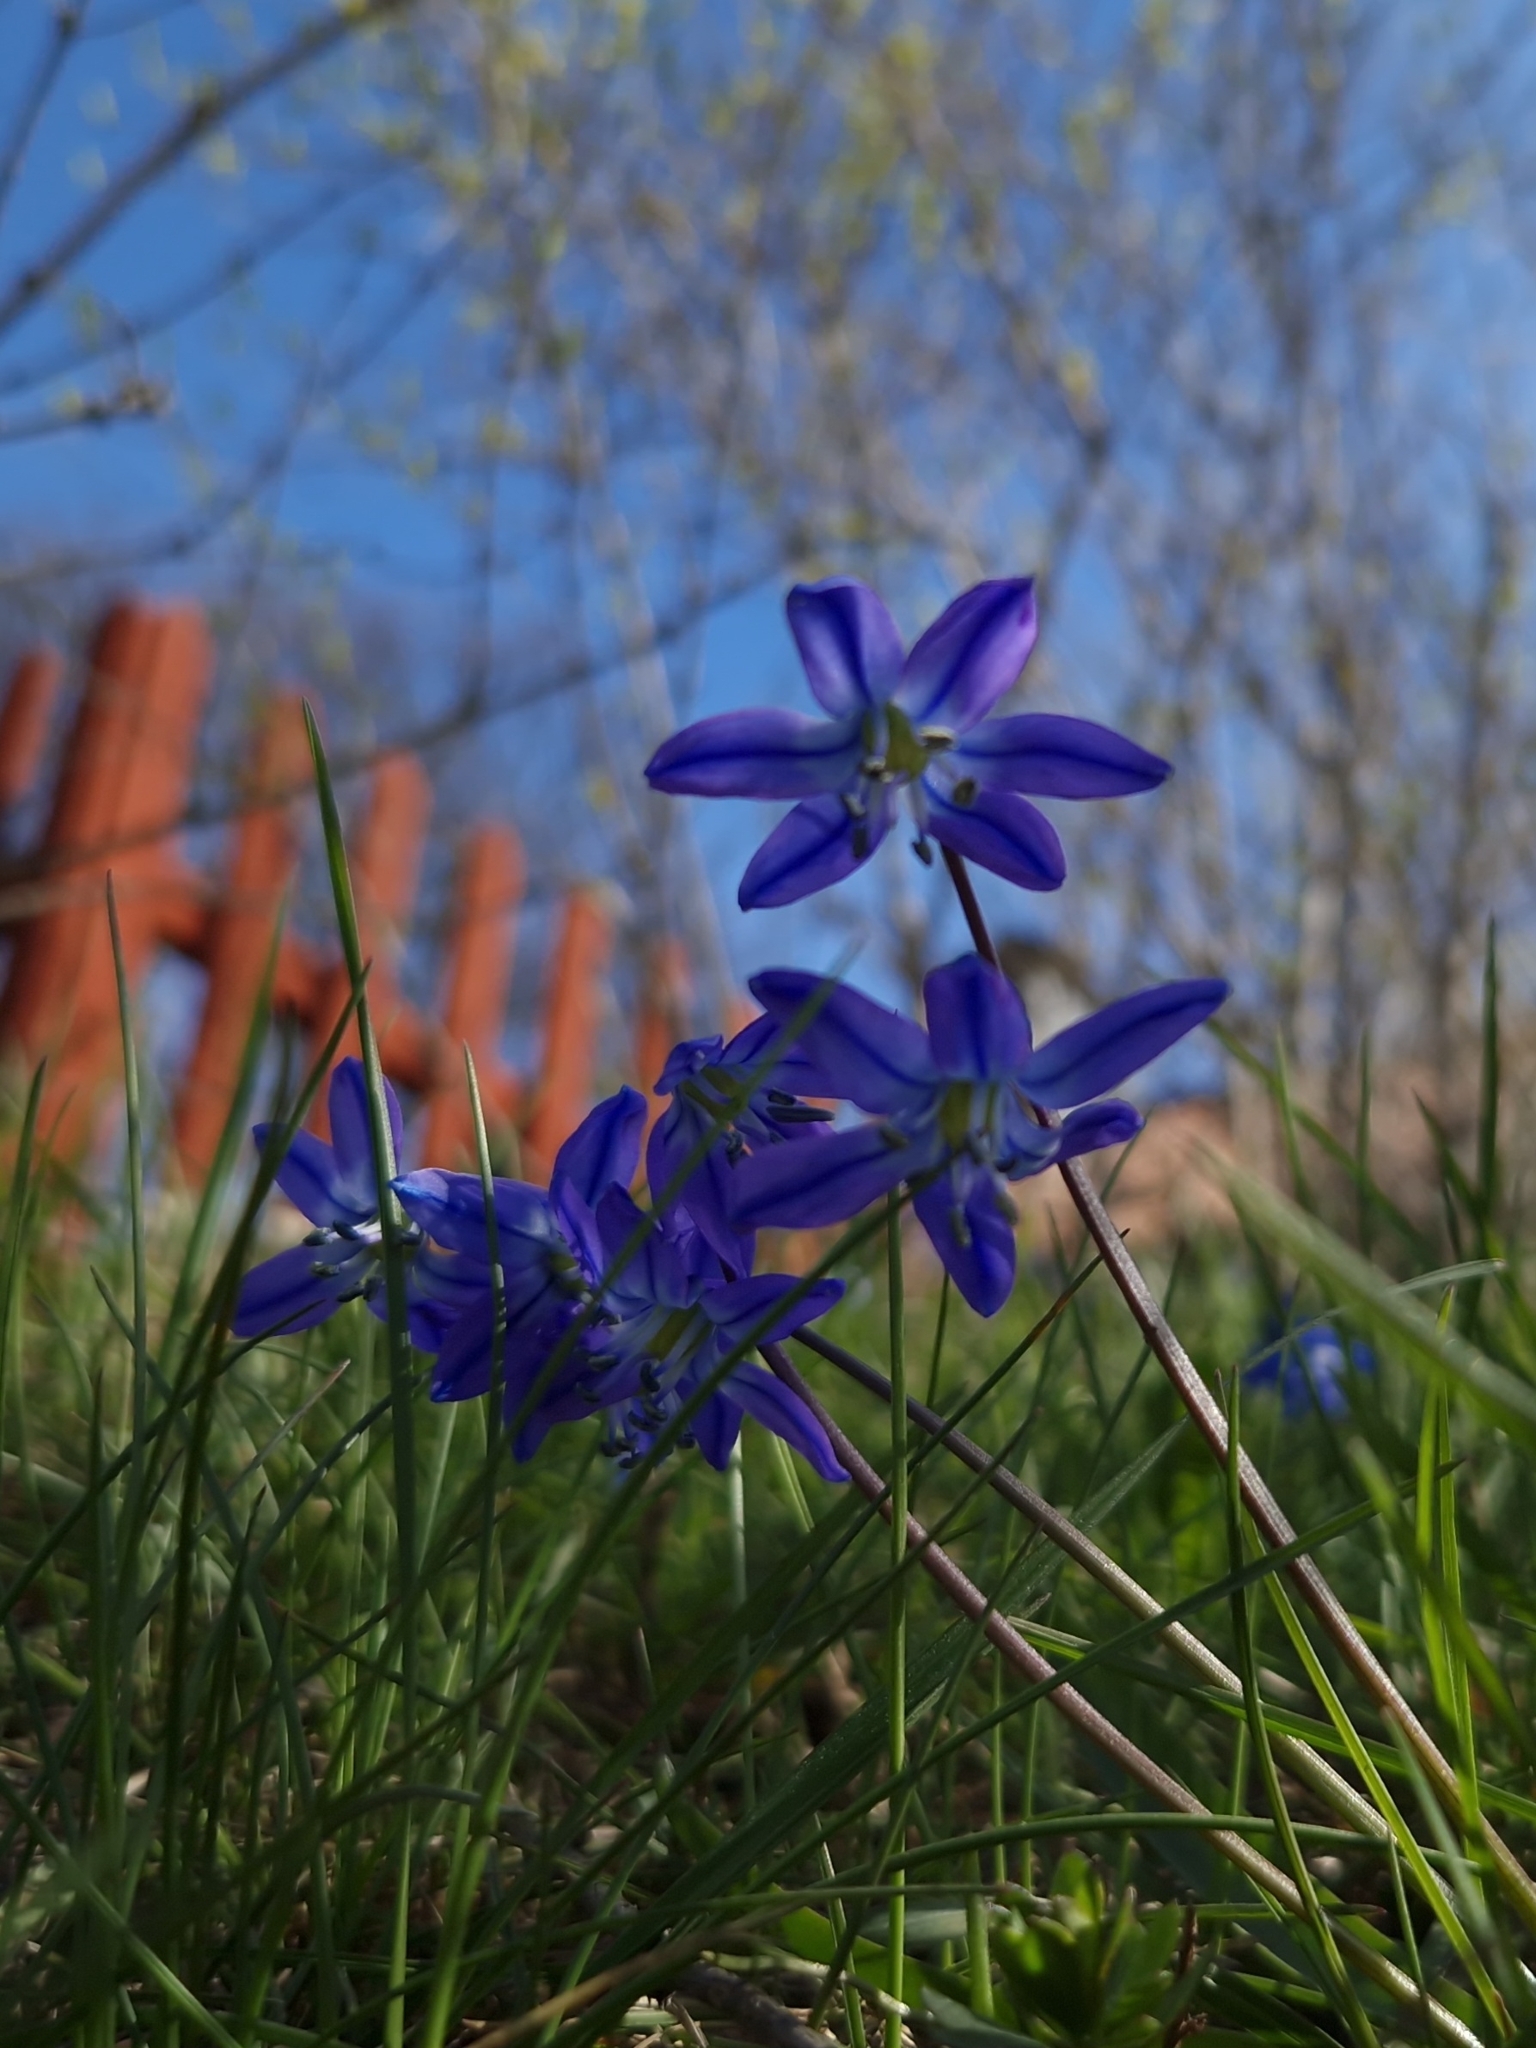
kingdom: Plantae
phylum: Tracheophyta
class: Liliopsida
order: Asparagales
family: Asparagaceae
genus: Scilla
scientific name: Scilla siberica
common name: Siberian squill
